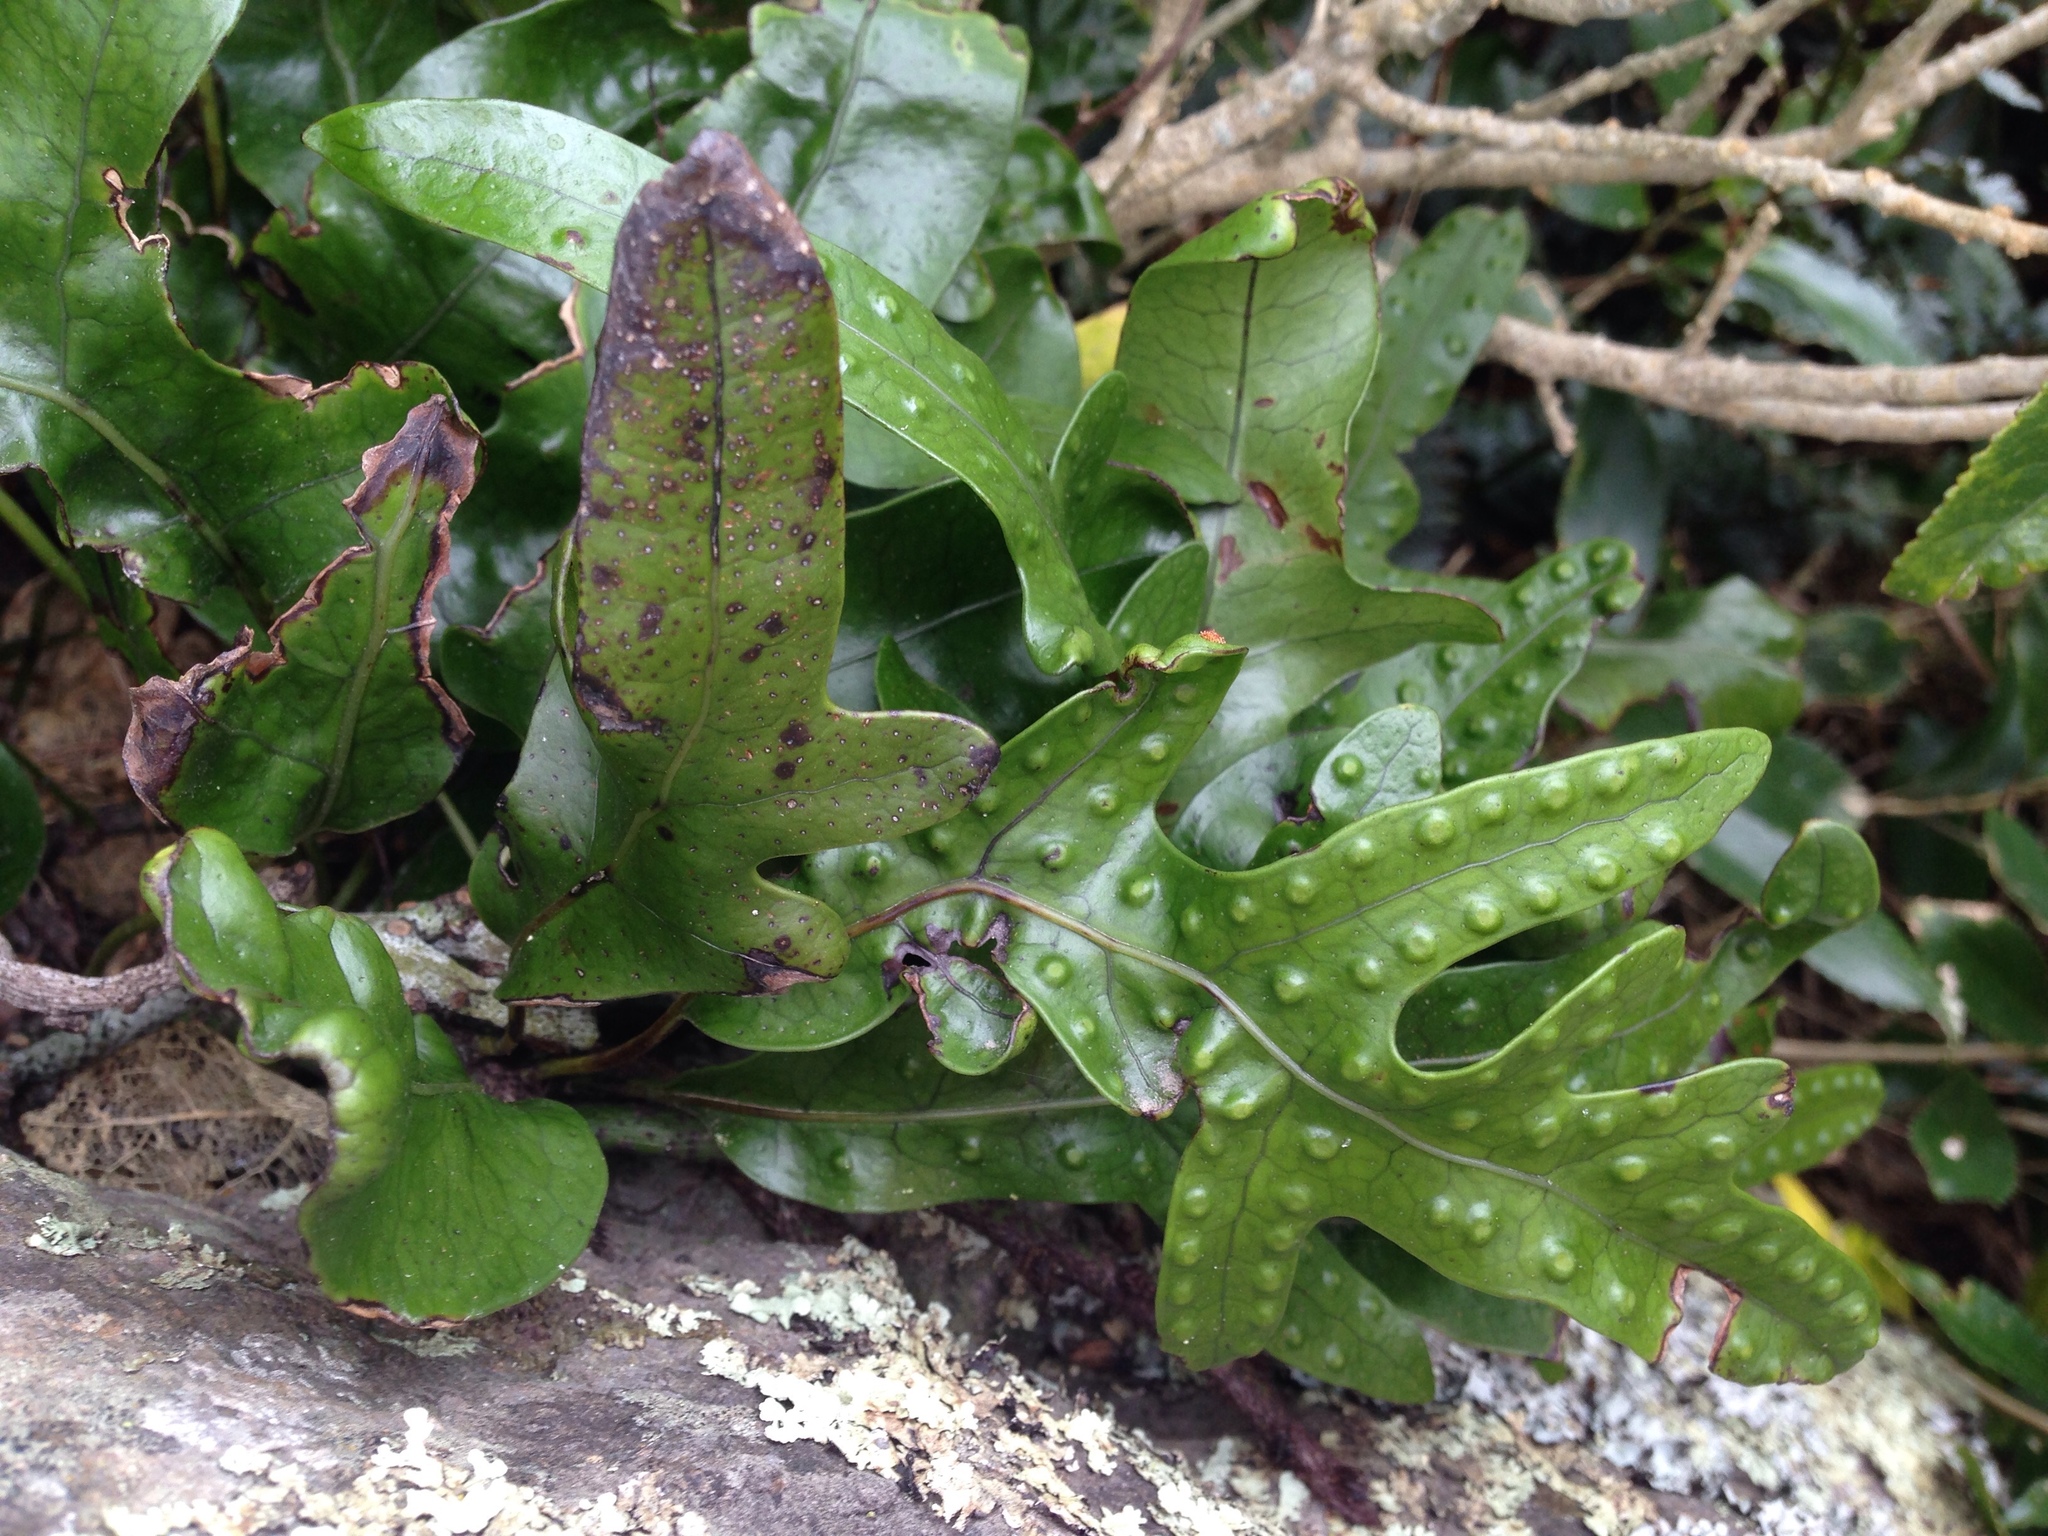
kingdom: Plantae
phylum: Tracheophyta
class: Polypodiopsida
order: Polypodiales
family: Polypodiaceae
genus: Lecanopteris
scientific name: Lecanopteris pustulata
